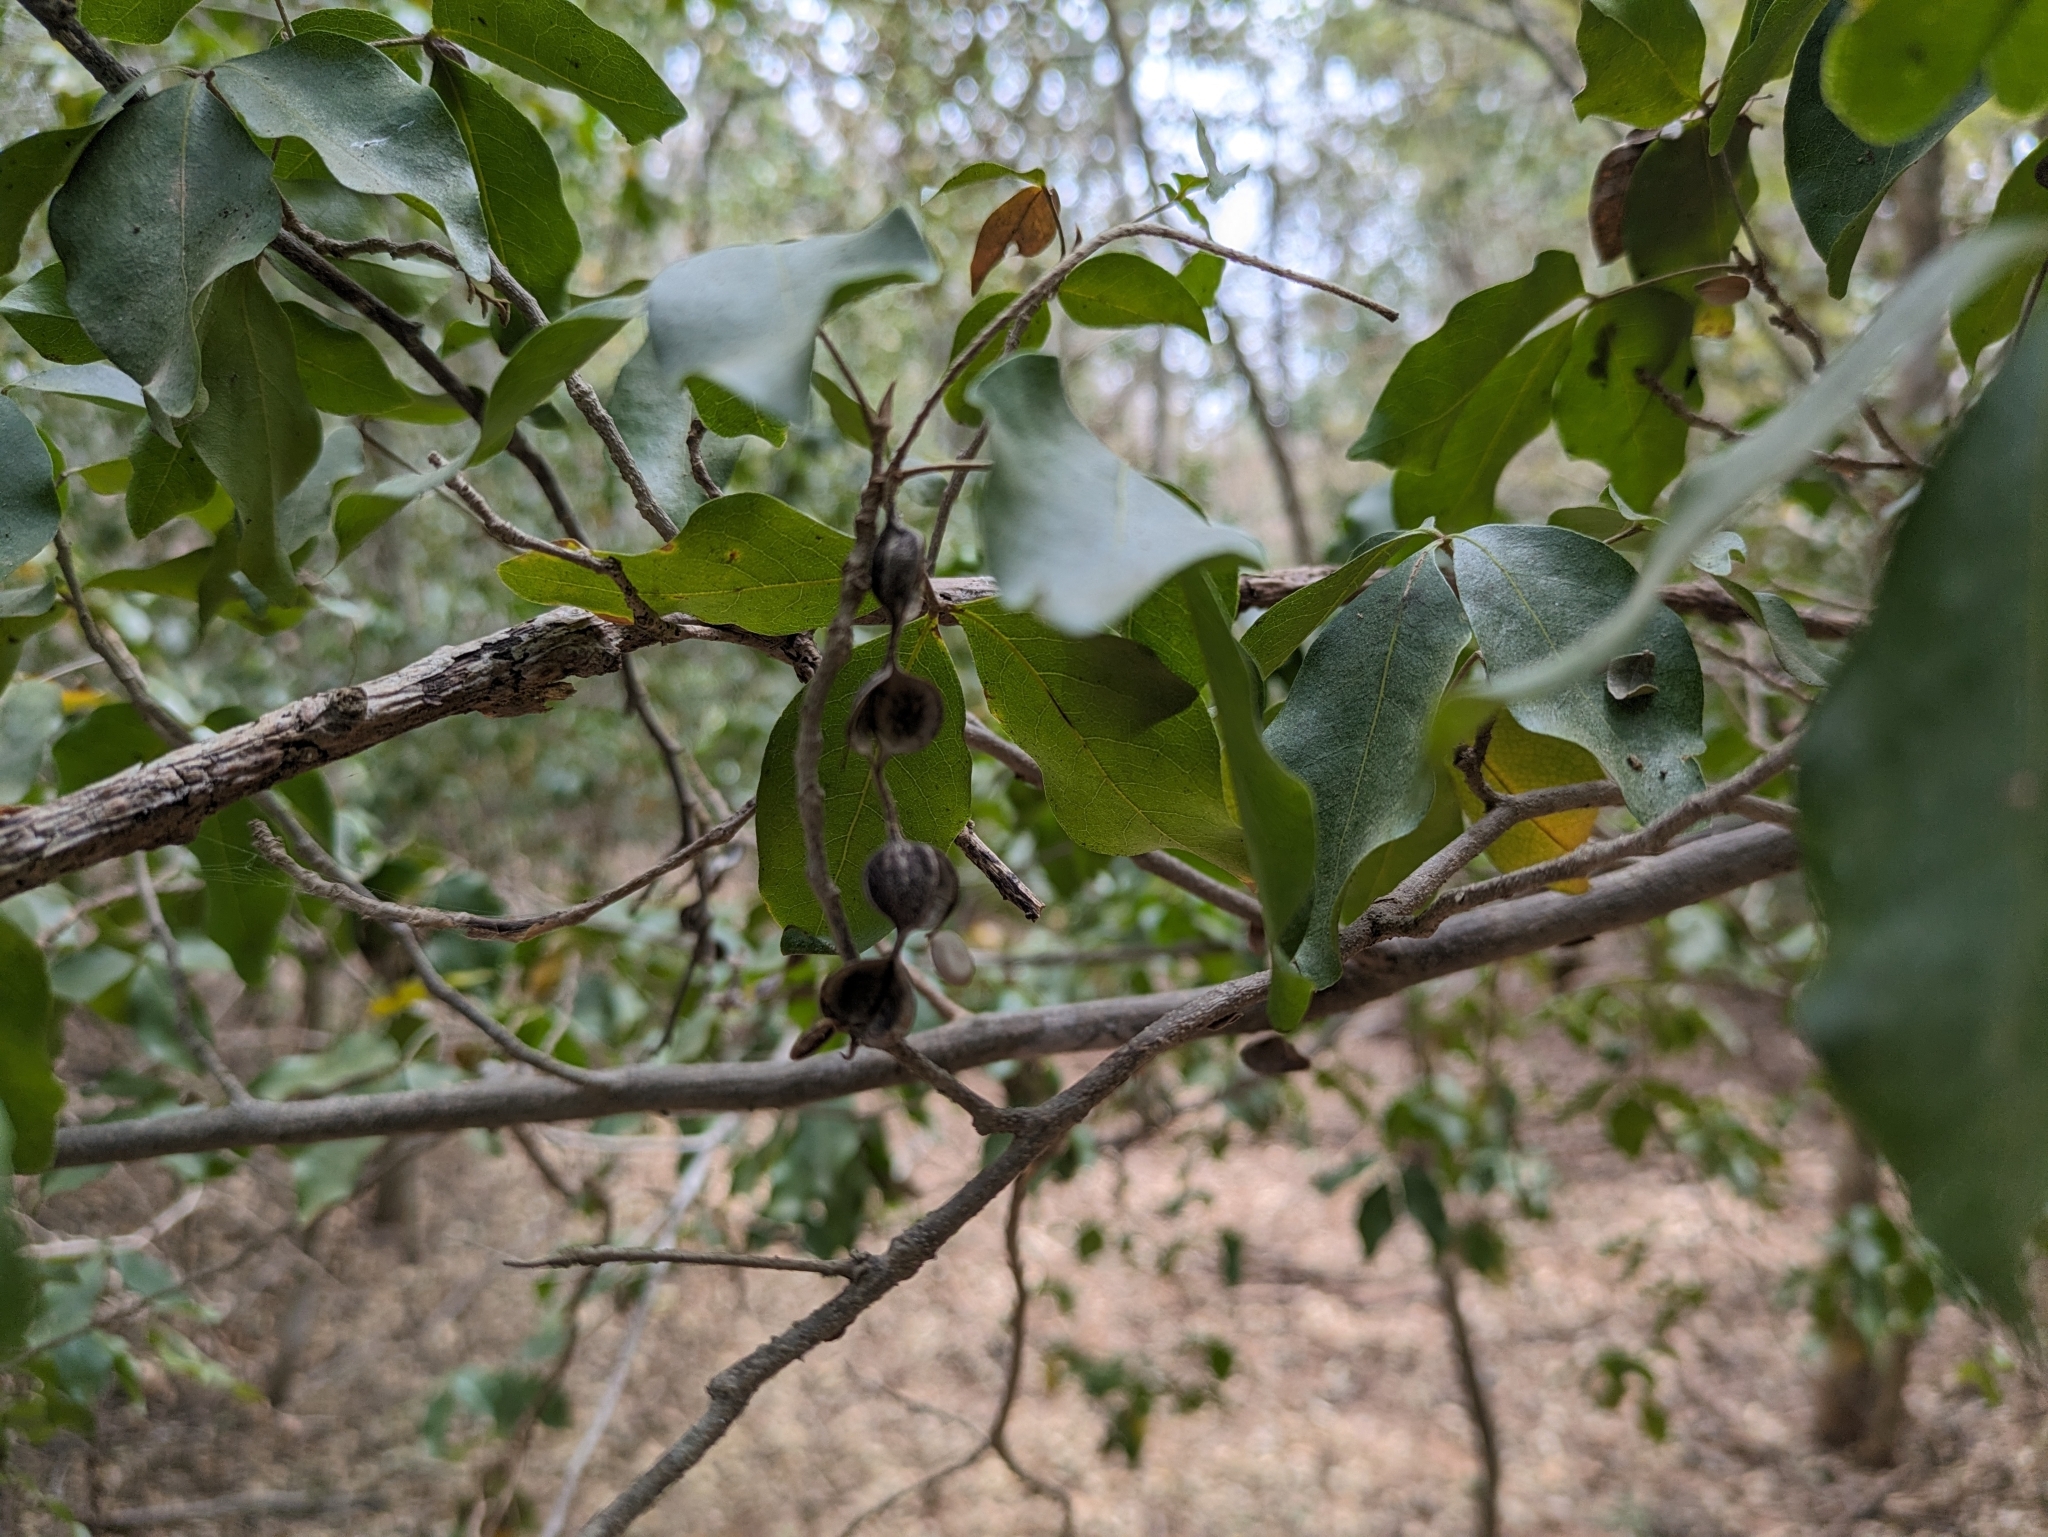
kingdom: Plantae
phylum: Tracheophyta
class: Magnoliopsida
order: Malpighiales
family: Picrodendraceae
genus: Piranhea
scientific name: Piranhea mexicana
